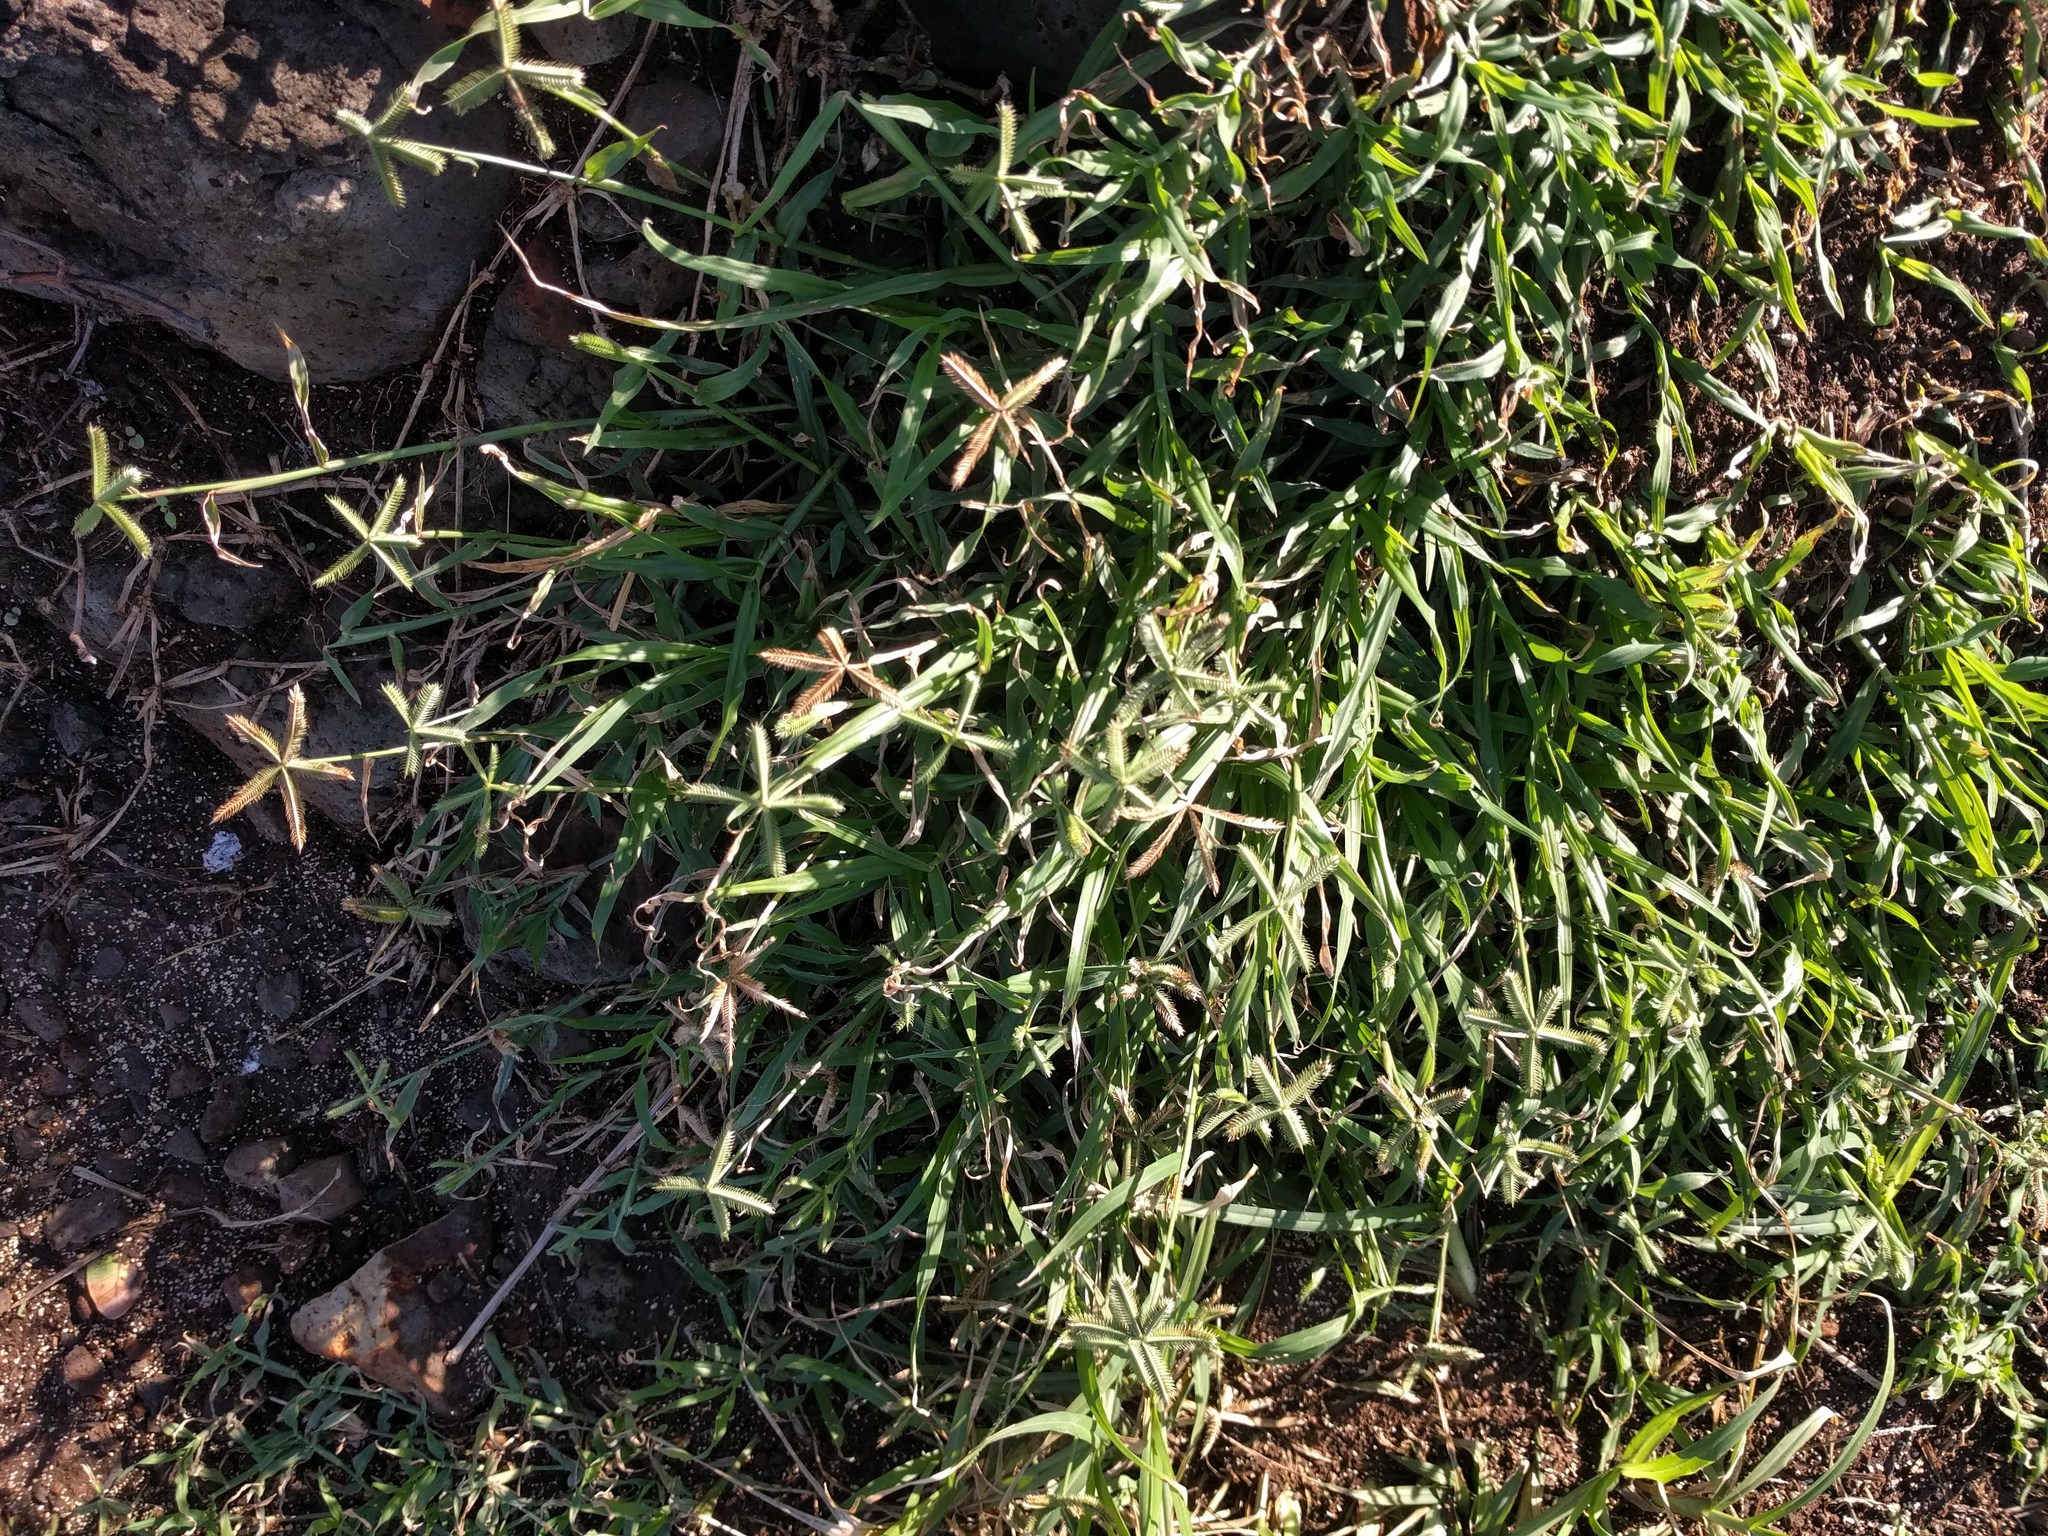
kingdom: Plantae
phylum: Tracheophyta
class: Liliopsida
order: Poales
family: Poaceae
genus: Dactyloctenium
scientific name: Dactyloctenium aegyptium
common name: Egyptian grass
